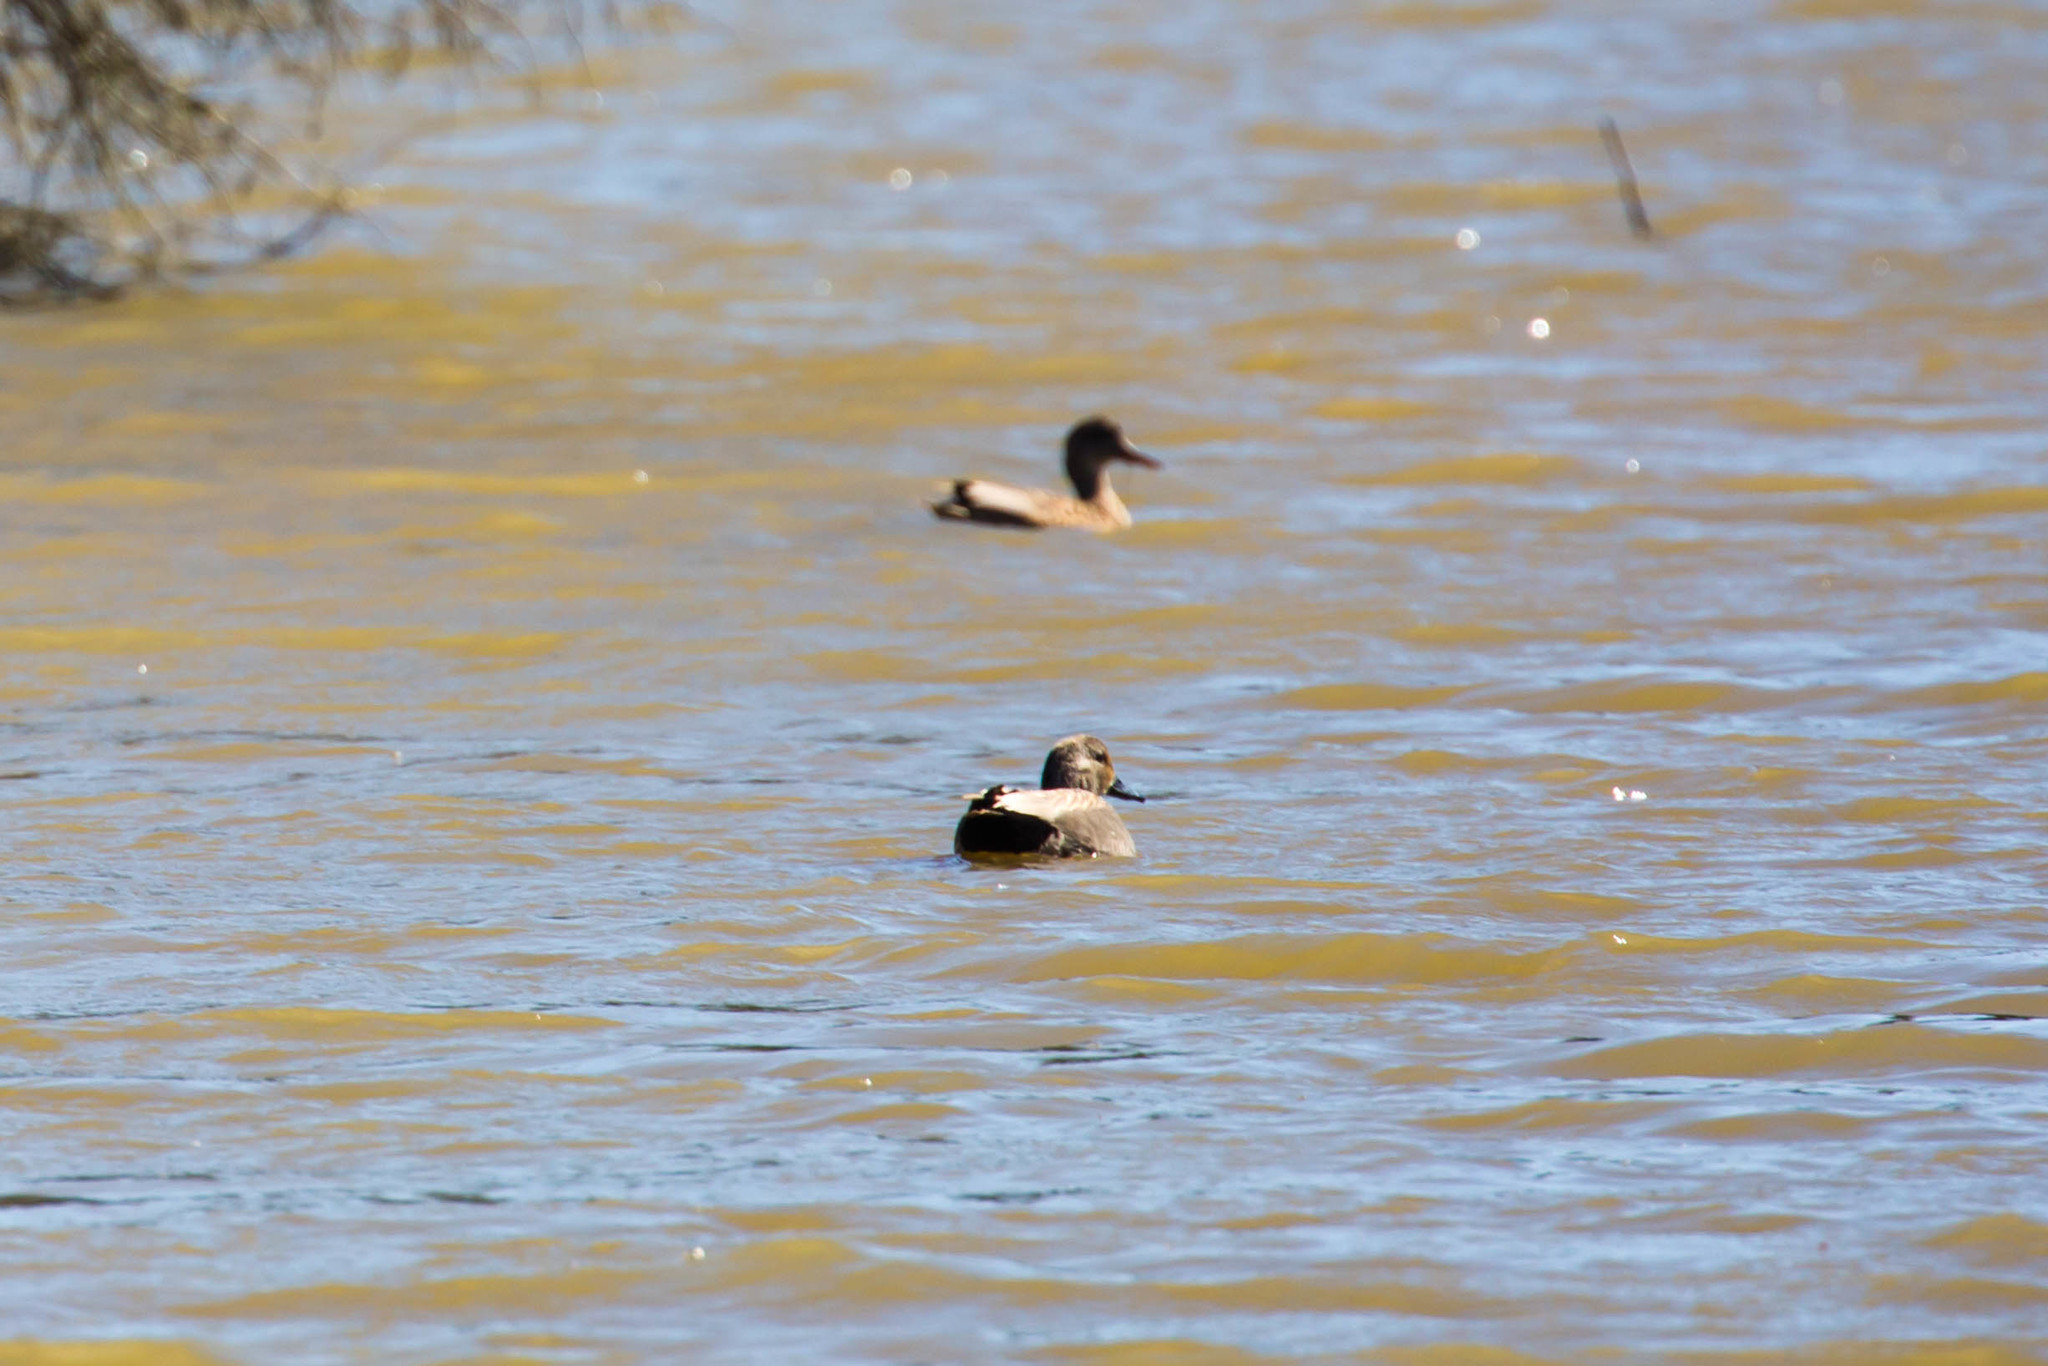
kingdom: Animalia
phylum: Chordata
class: Aves
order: Anseriformes
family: Anatidae
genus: Mareca
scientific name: Mareca strepera
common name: Gadwall
